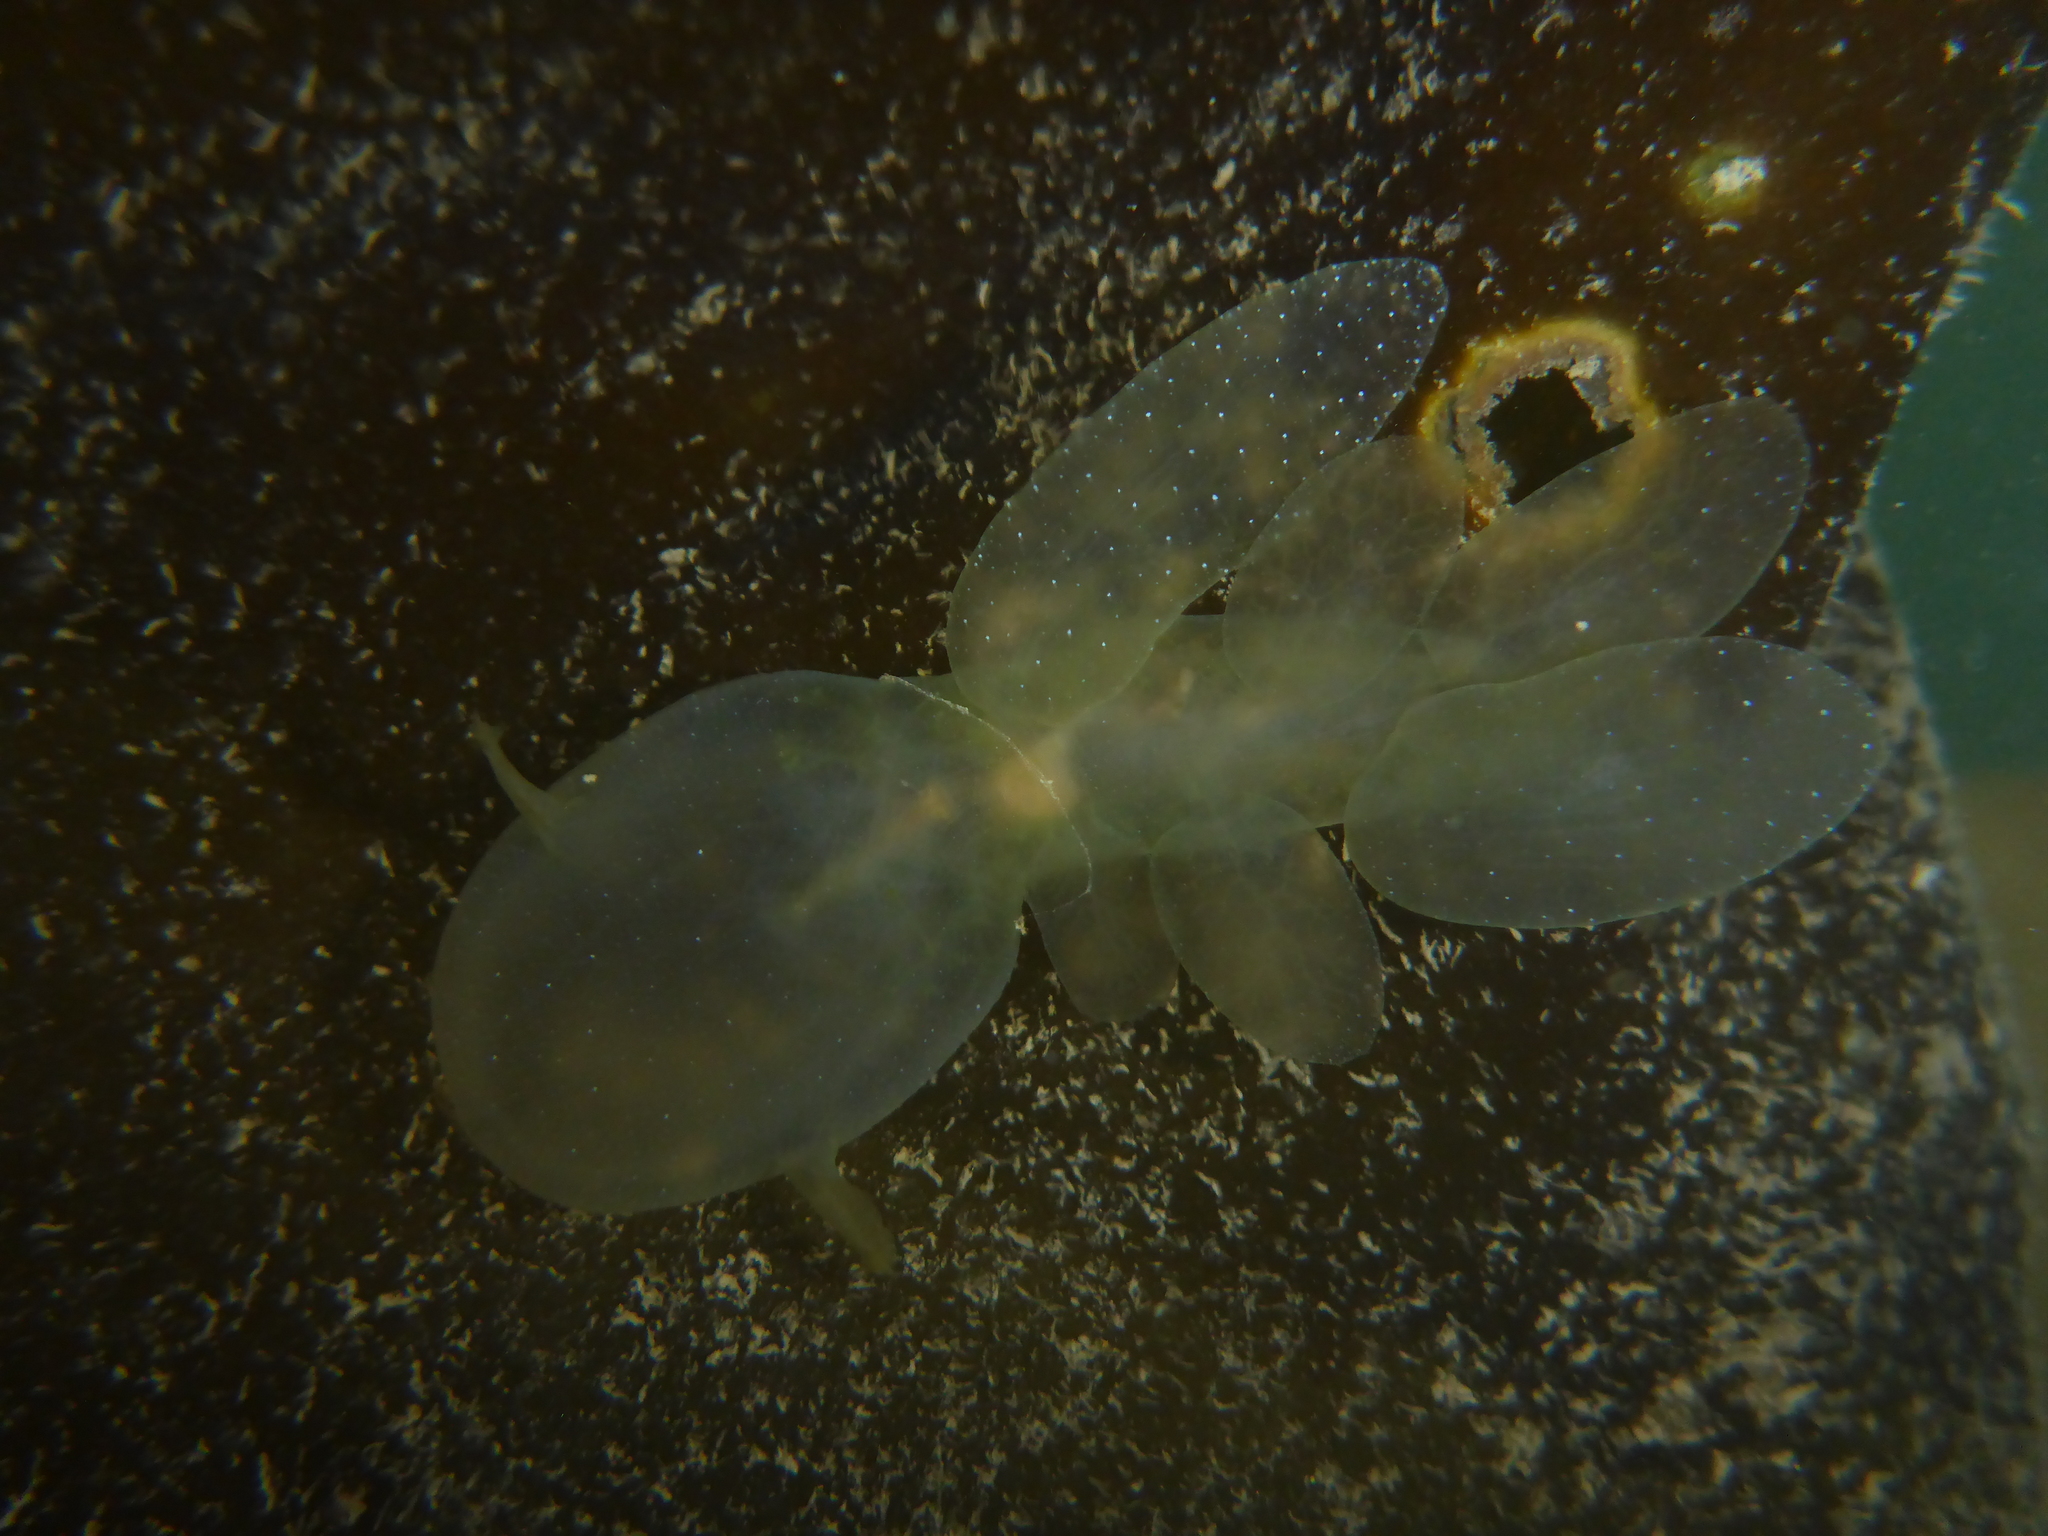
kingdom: Animalia
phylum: Mollusca
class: Gastropoda
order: Nudibranchia
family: Tethydidae
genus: Melibe
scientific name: Melibe leonina
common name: Lion nudibranch
